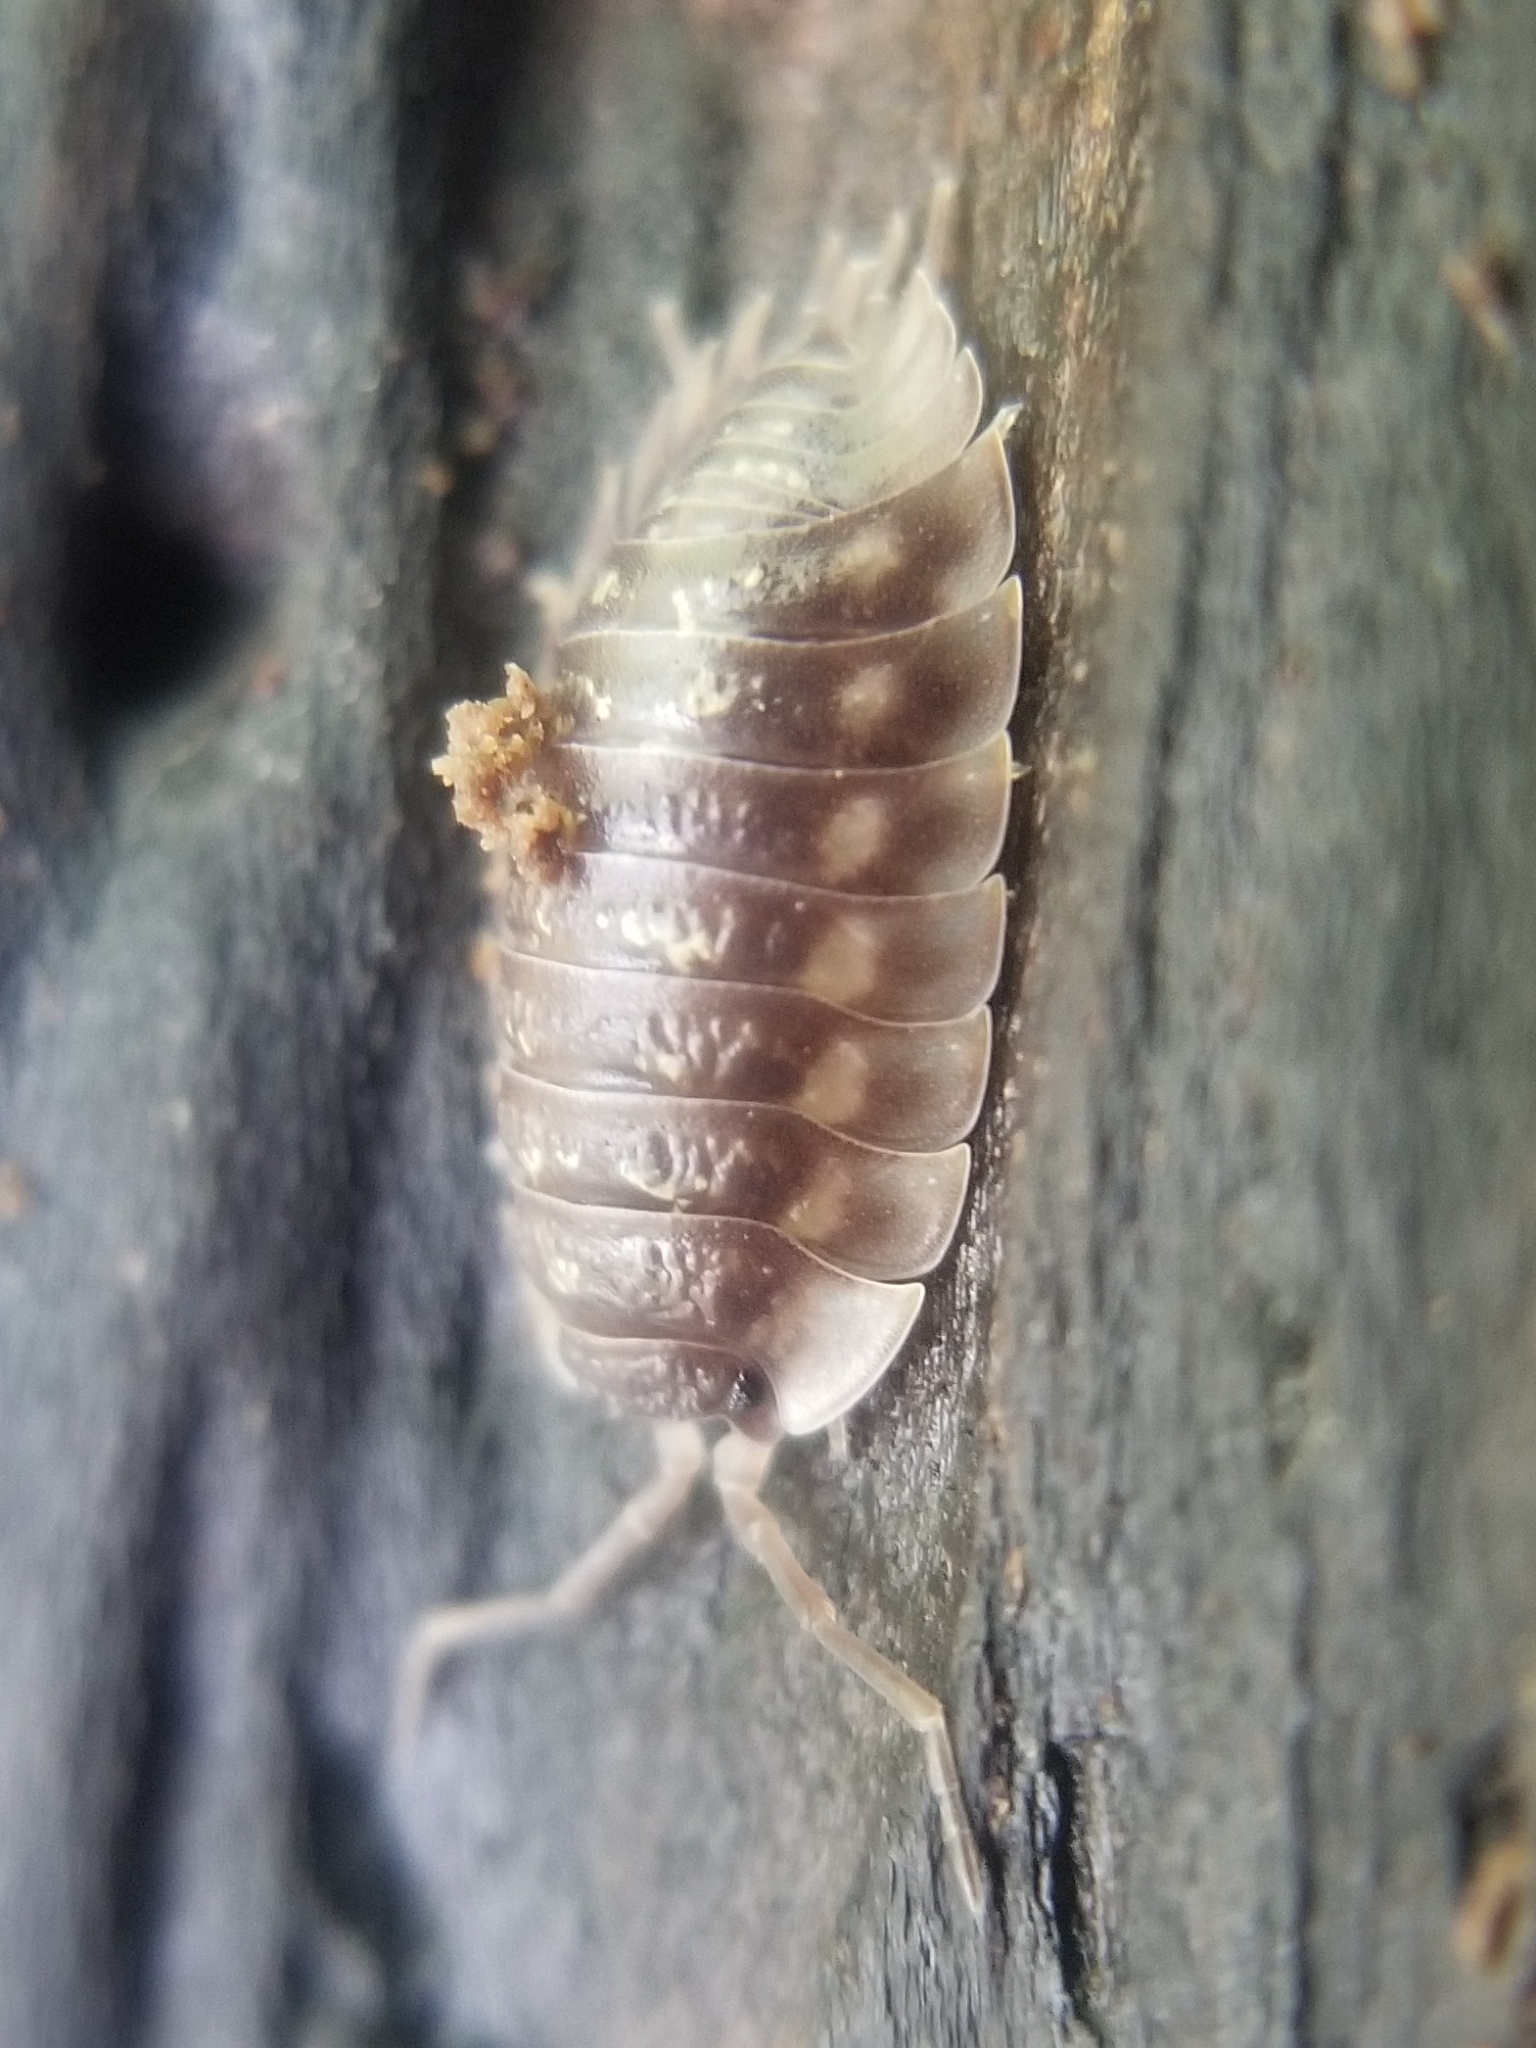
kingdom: Animalia
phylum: Arthropoda
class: Malacostraca
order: Isopoda
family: Oniscidae
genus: Oniscus
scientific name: Oniscus asellus
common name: Common shiny woodlouse
